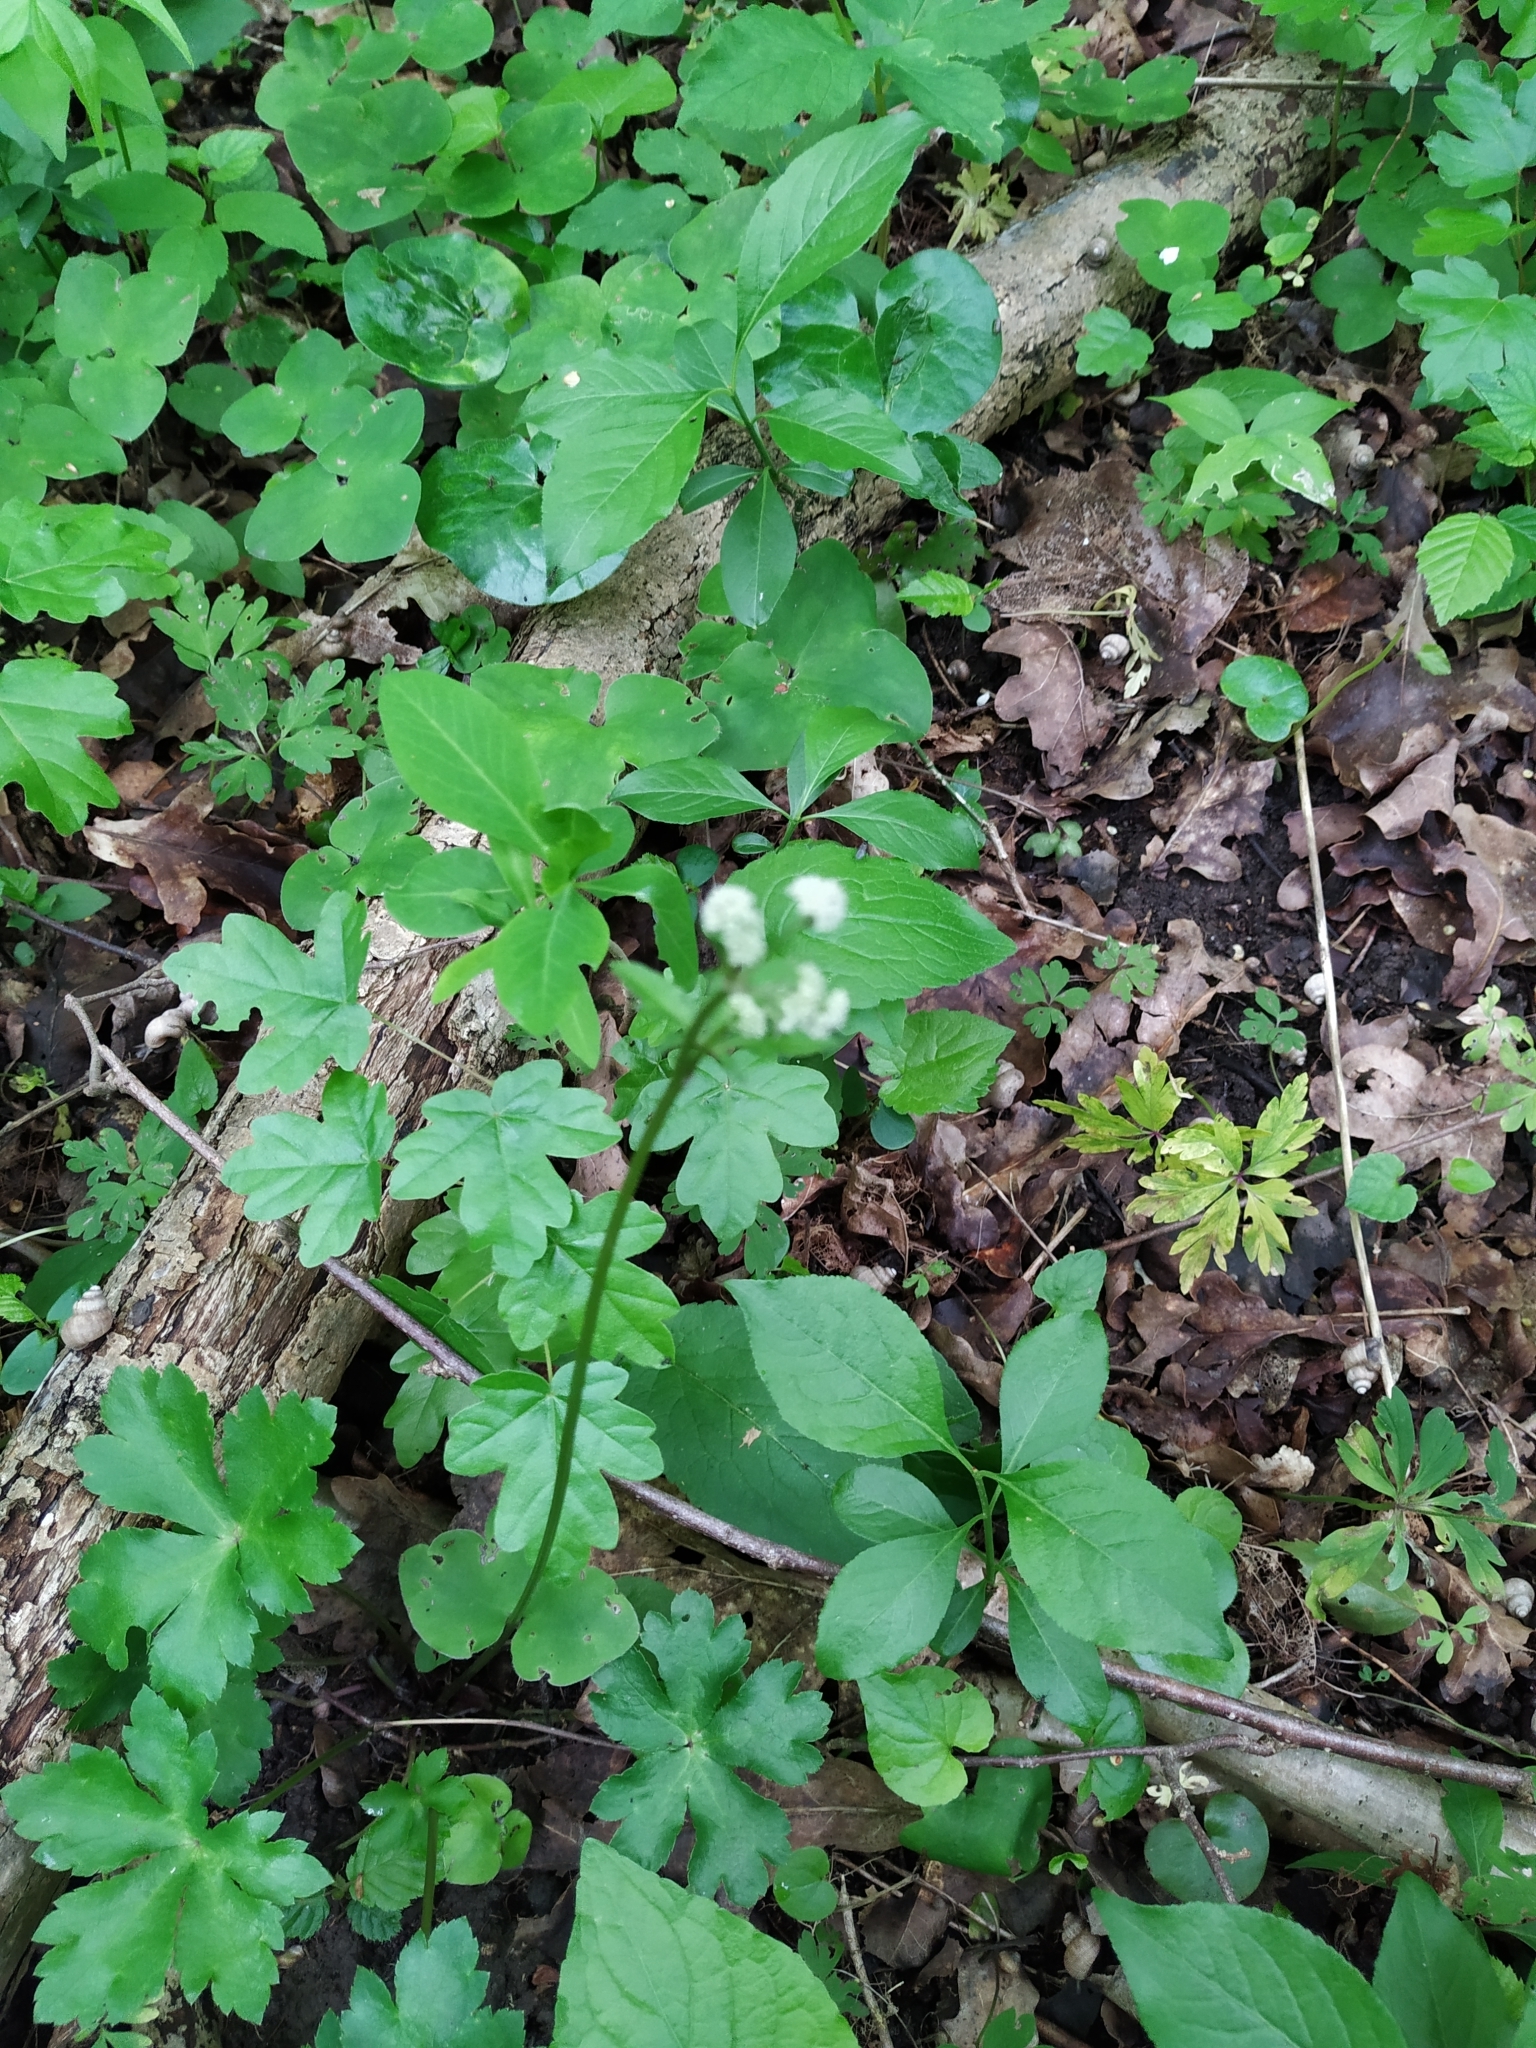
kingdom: Plantae
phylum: Tracheophyta
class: Magnoliopsida
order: Apiales
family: Apiaceae
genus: Sanicula
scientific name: Sanicula europaea
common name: Sanicle
